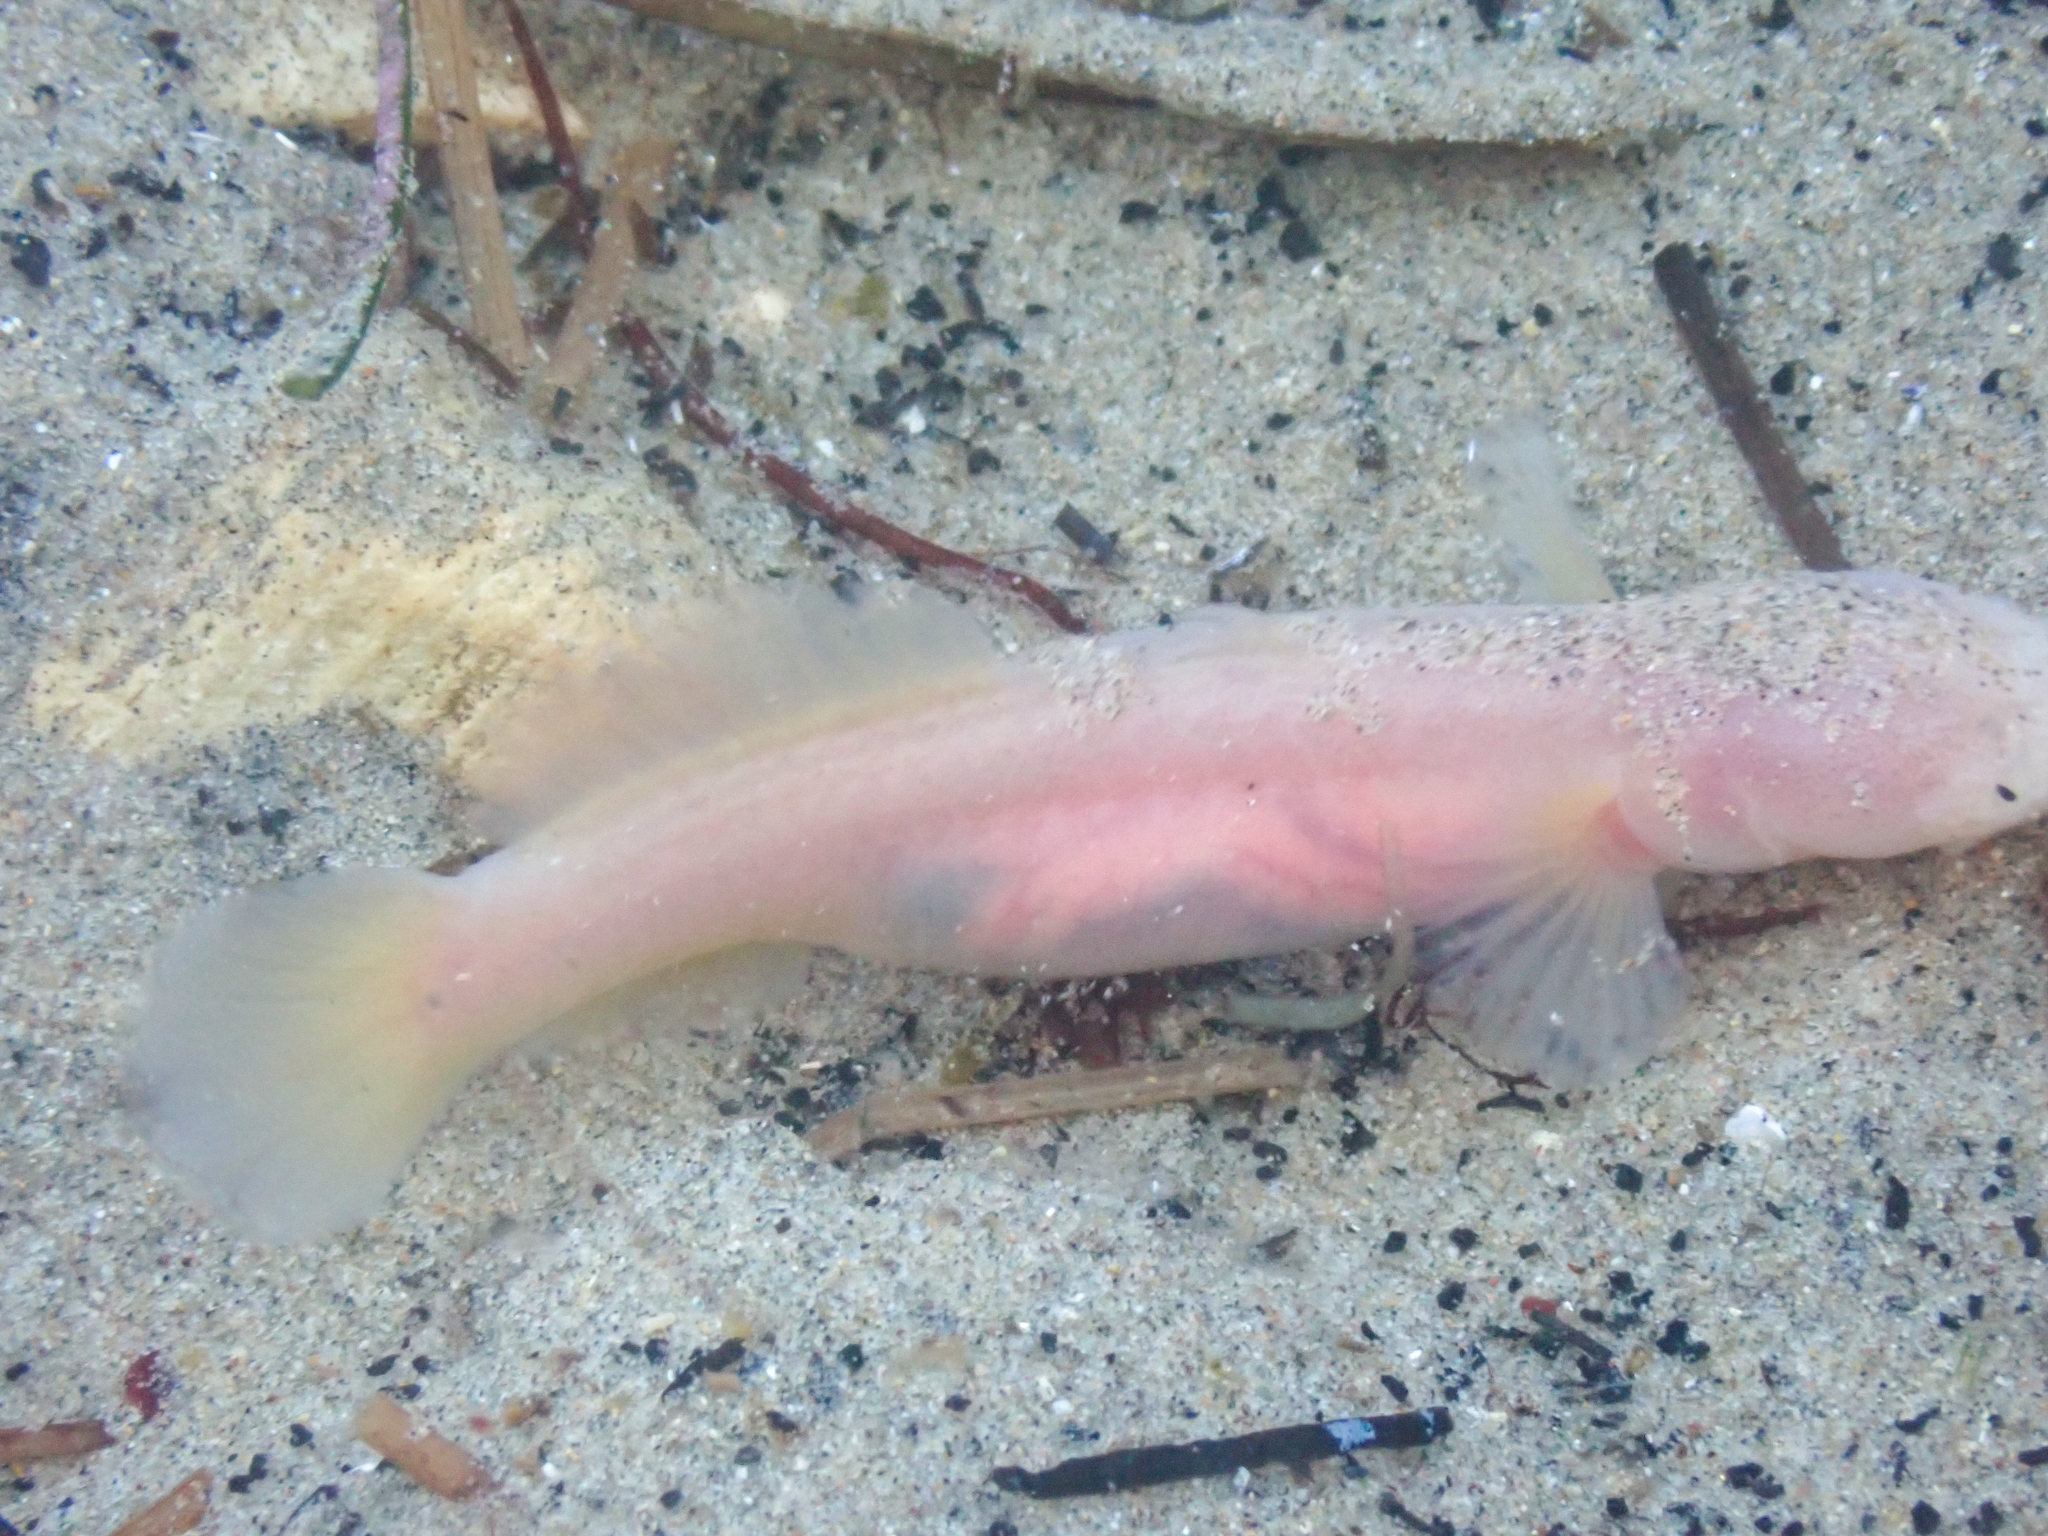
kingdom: Animalia
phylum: Chordata
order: Perciformes
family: Gobiidae
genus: Typhlogobius
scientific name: Typhlogobius californiensis
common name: Blind goby
